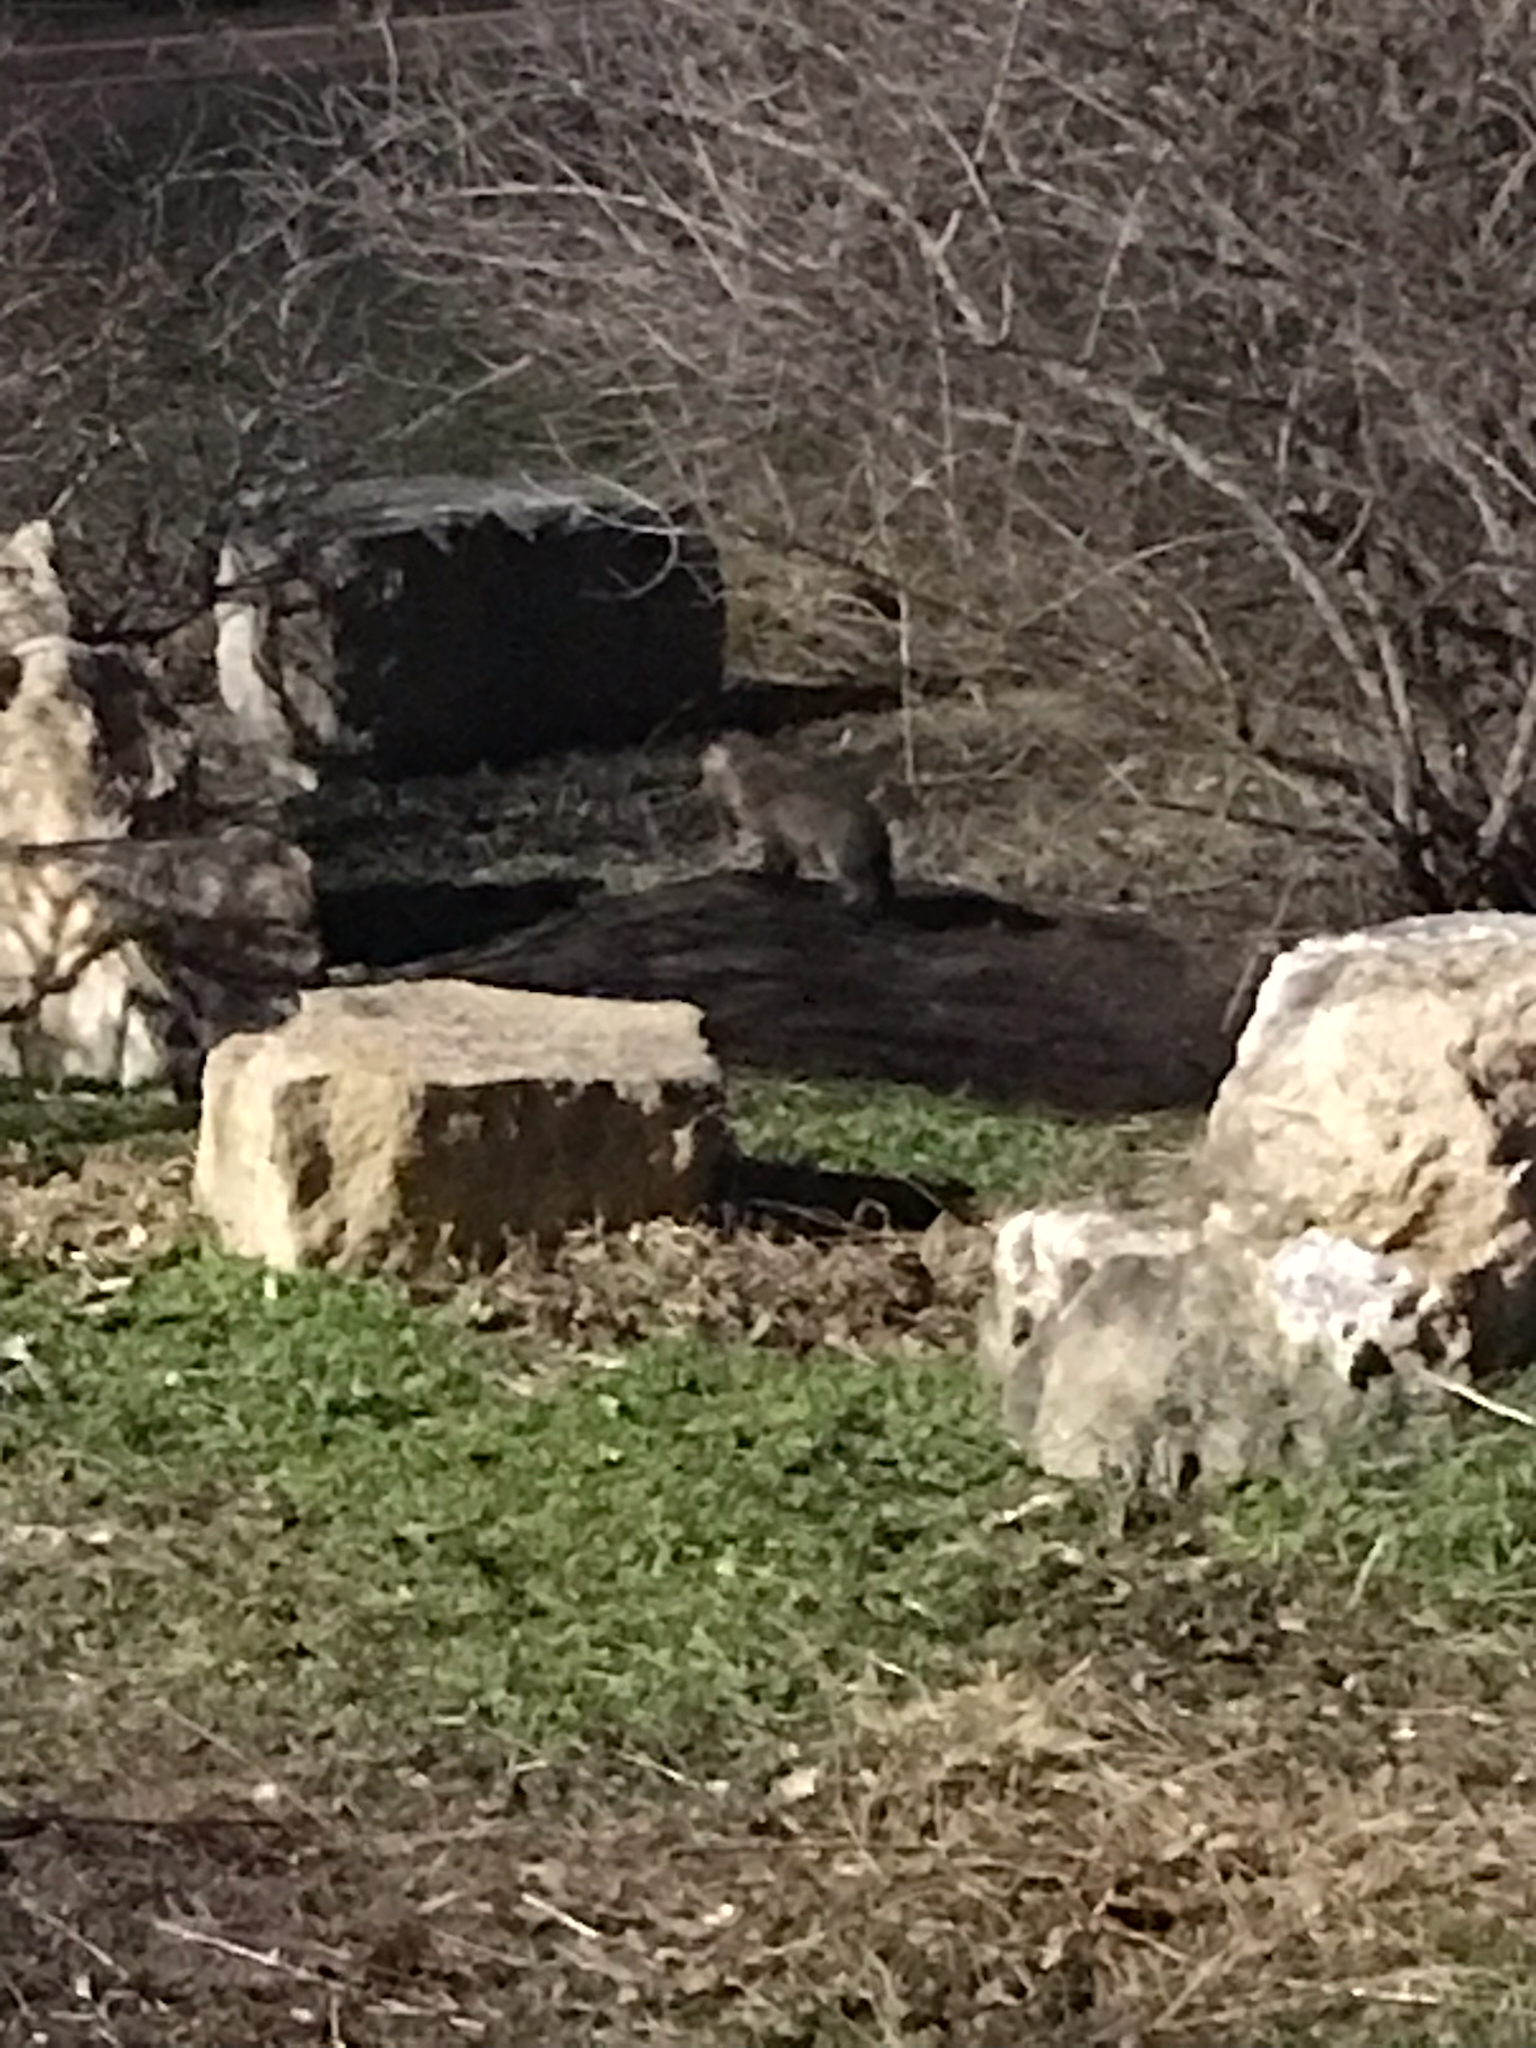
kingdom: Animalia
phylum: Chordata
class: Mammalia
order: Carnivora
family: Canidae
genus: Vulpes
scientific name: Vulpes vulpes
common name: Red fox
